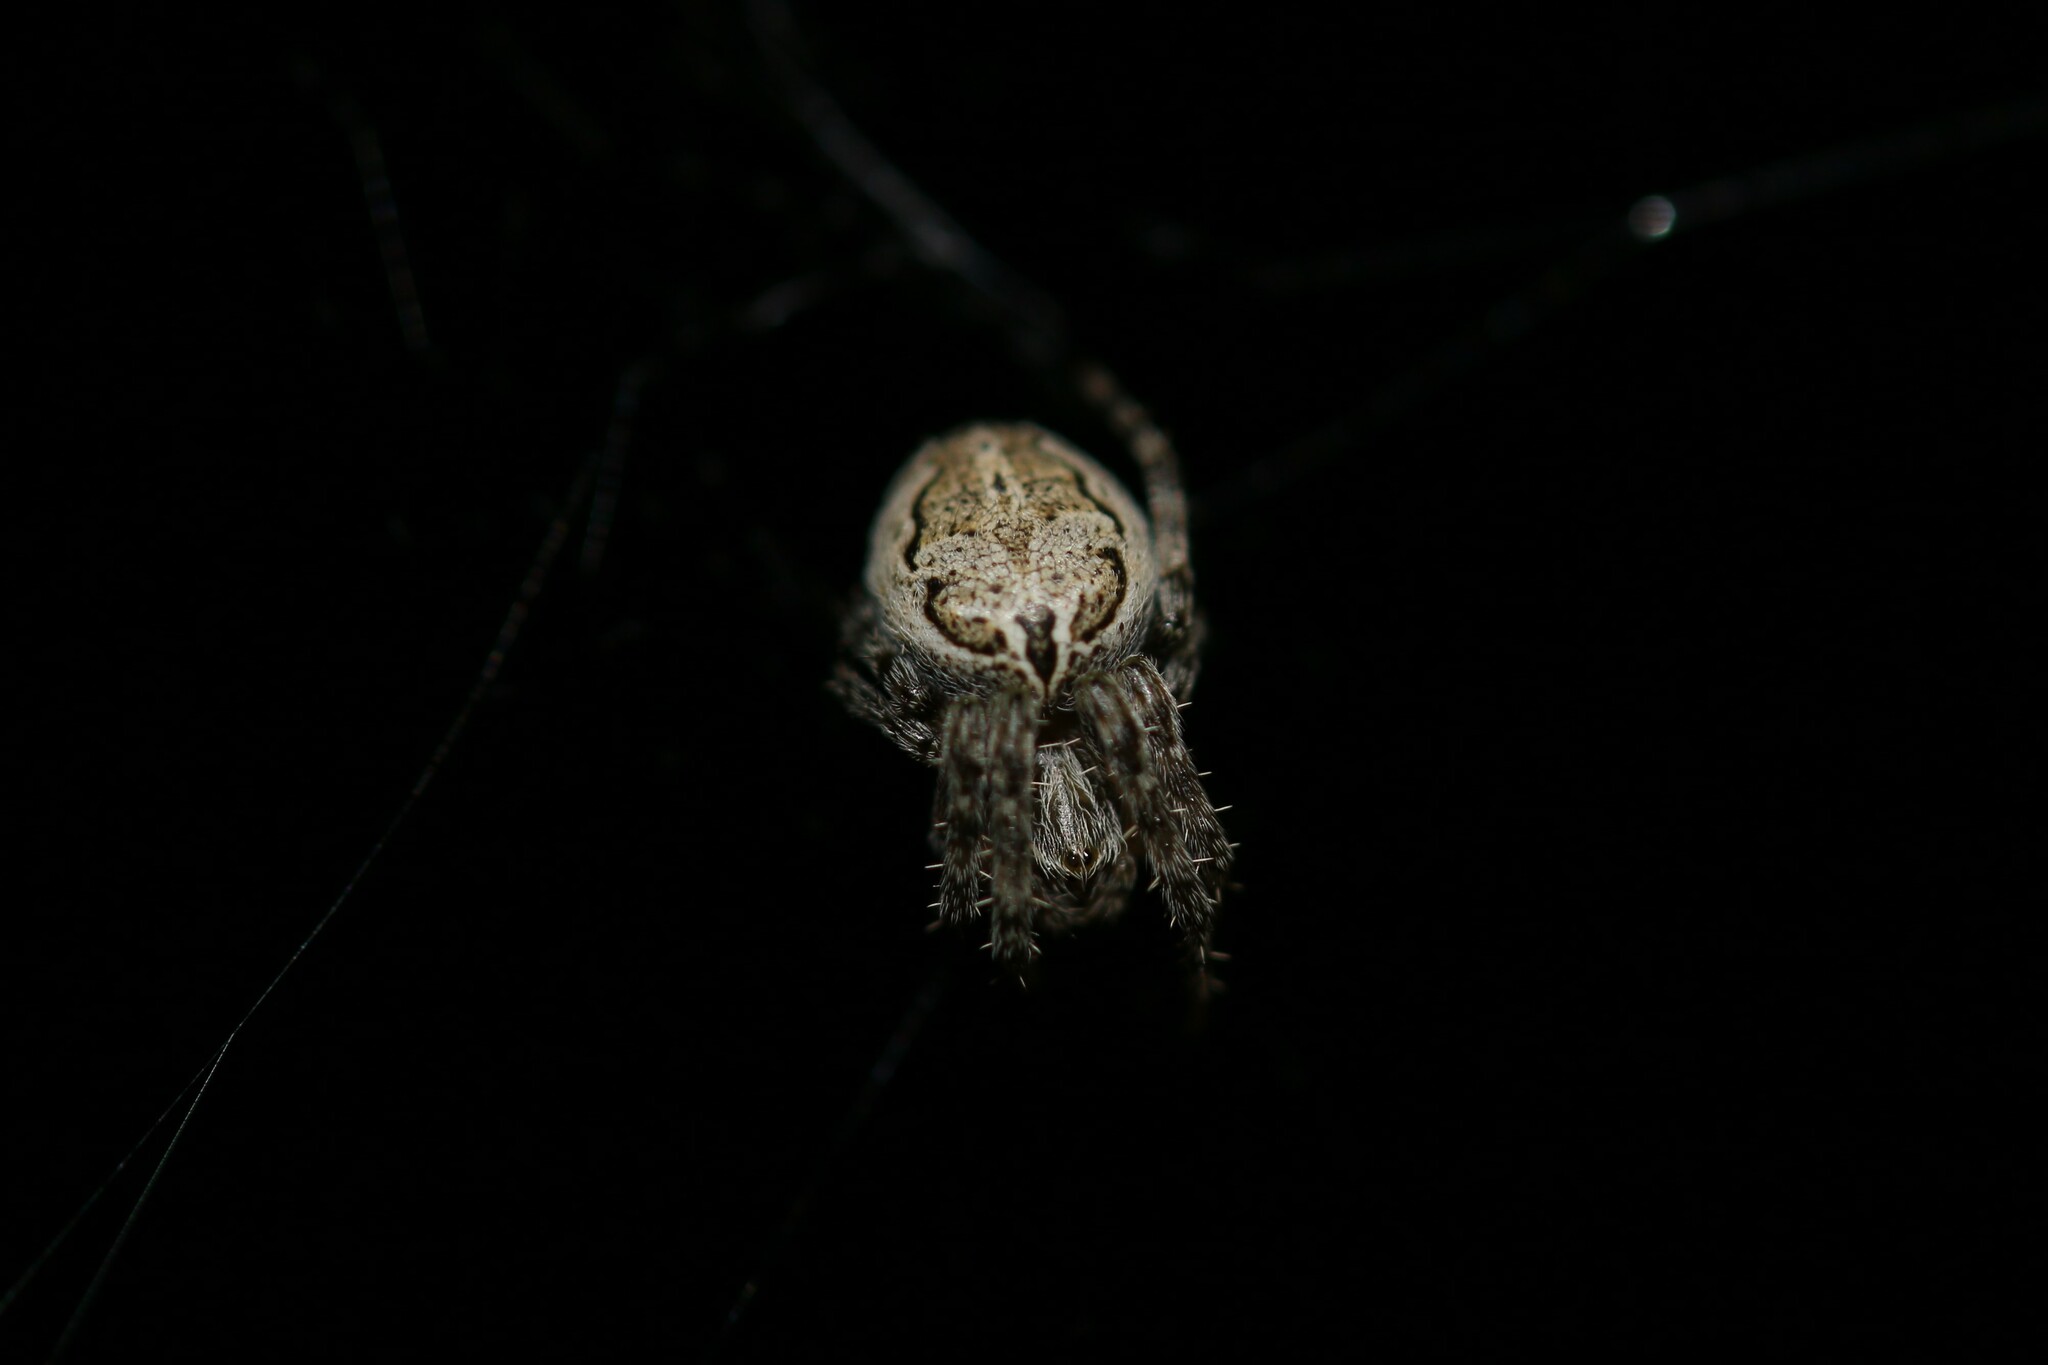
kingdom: Animalia
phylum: Arthropoda
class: Arachnida
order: Araneae
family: Araneidae
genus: Larinioides
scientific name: Larinioides sclopetarius
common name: Bridge orbweaver
